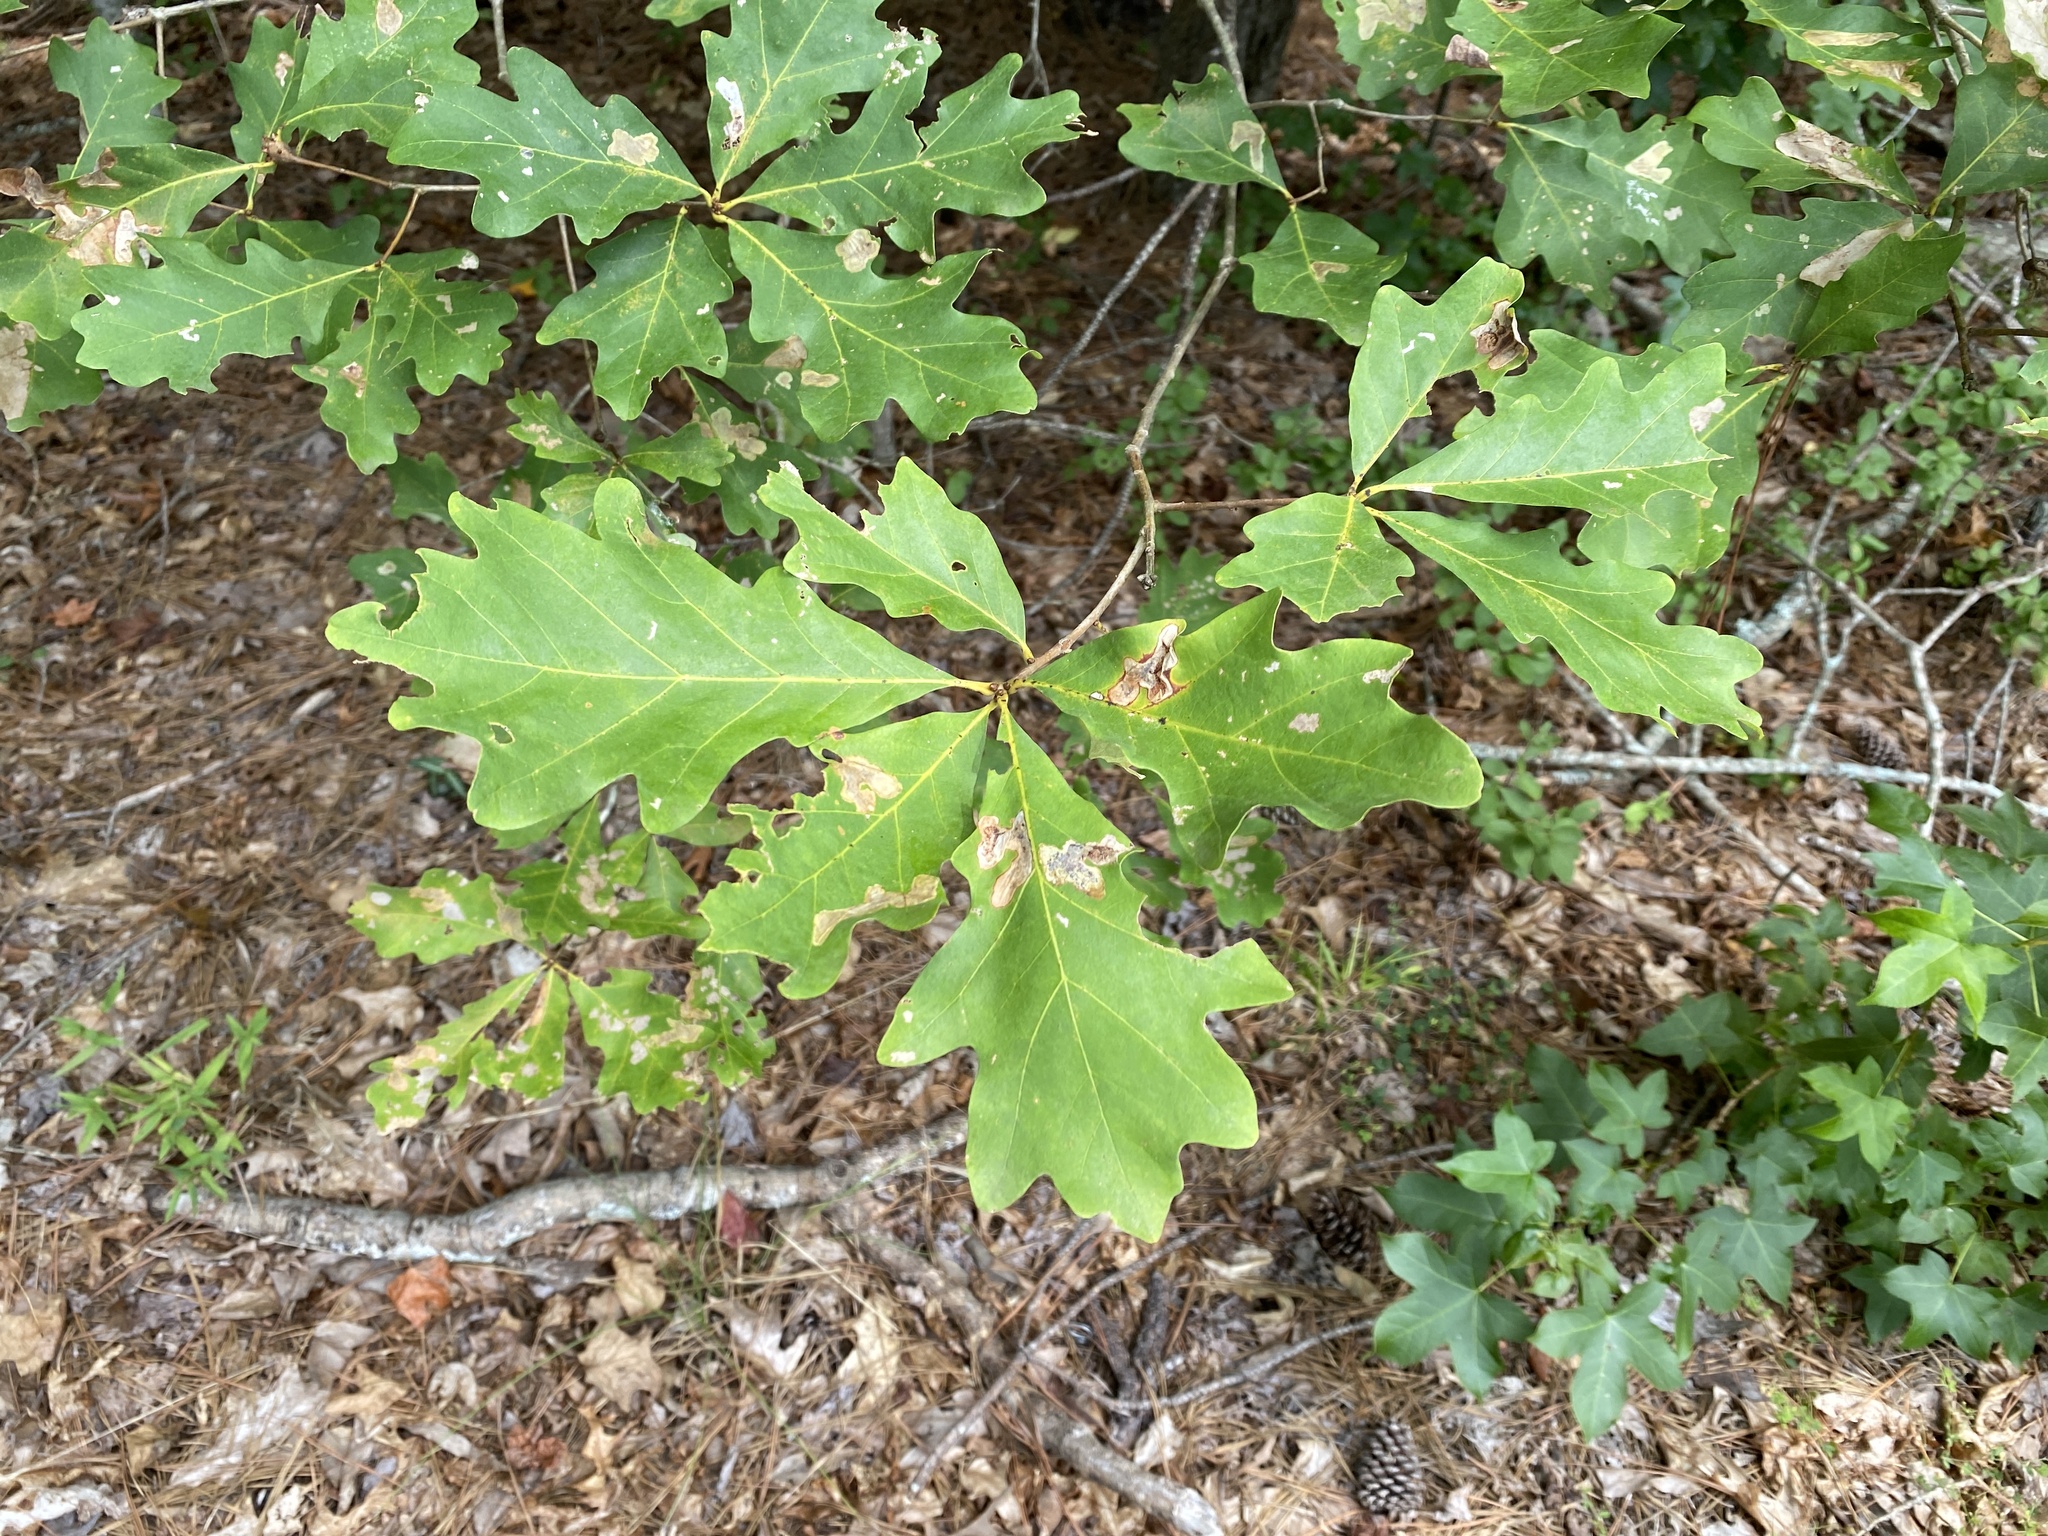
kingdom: Plantae
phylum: Tracheophyta
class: Magnoliopsida
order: Fagales
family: Fagaceae
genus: Quercus
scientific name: Quercus alba
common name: White oak
